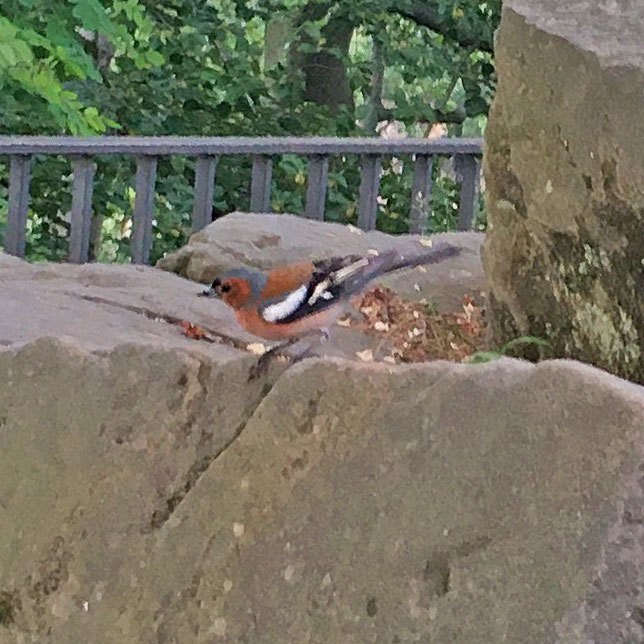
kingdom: Animalia
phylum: Chordata
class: Aves
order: Passeriformes
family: Fringillidae
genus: Fringilla
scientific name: Fringilla coelebs
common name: Common chaffinch
